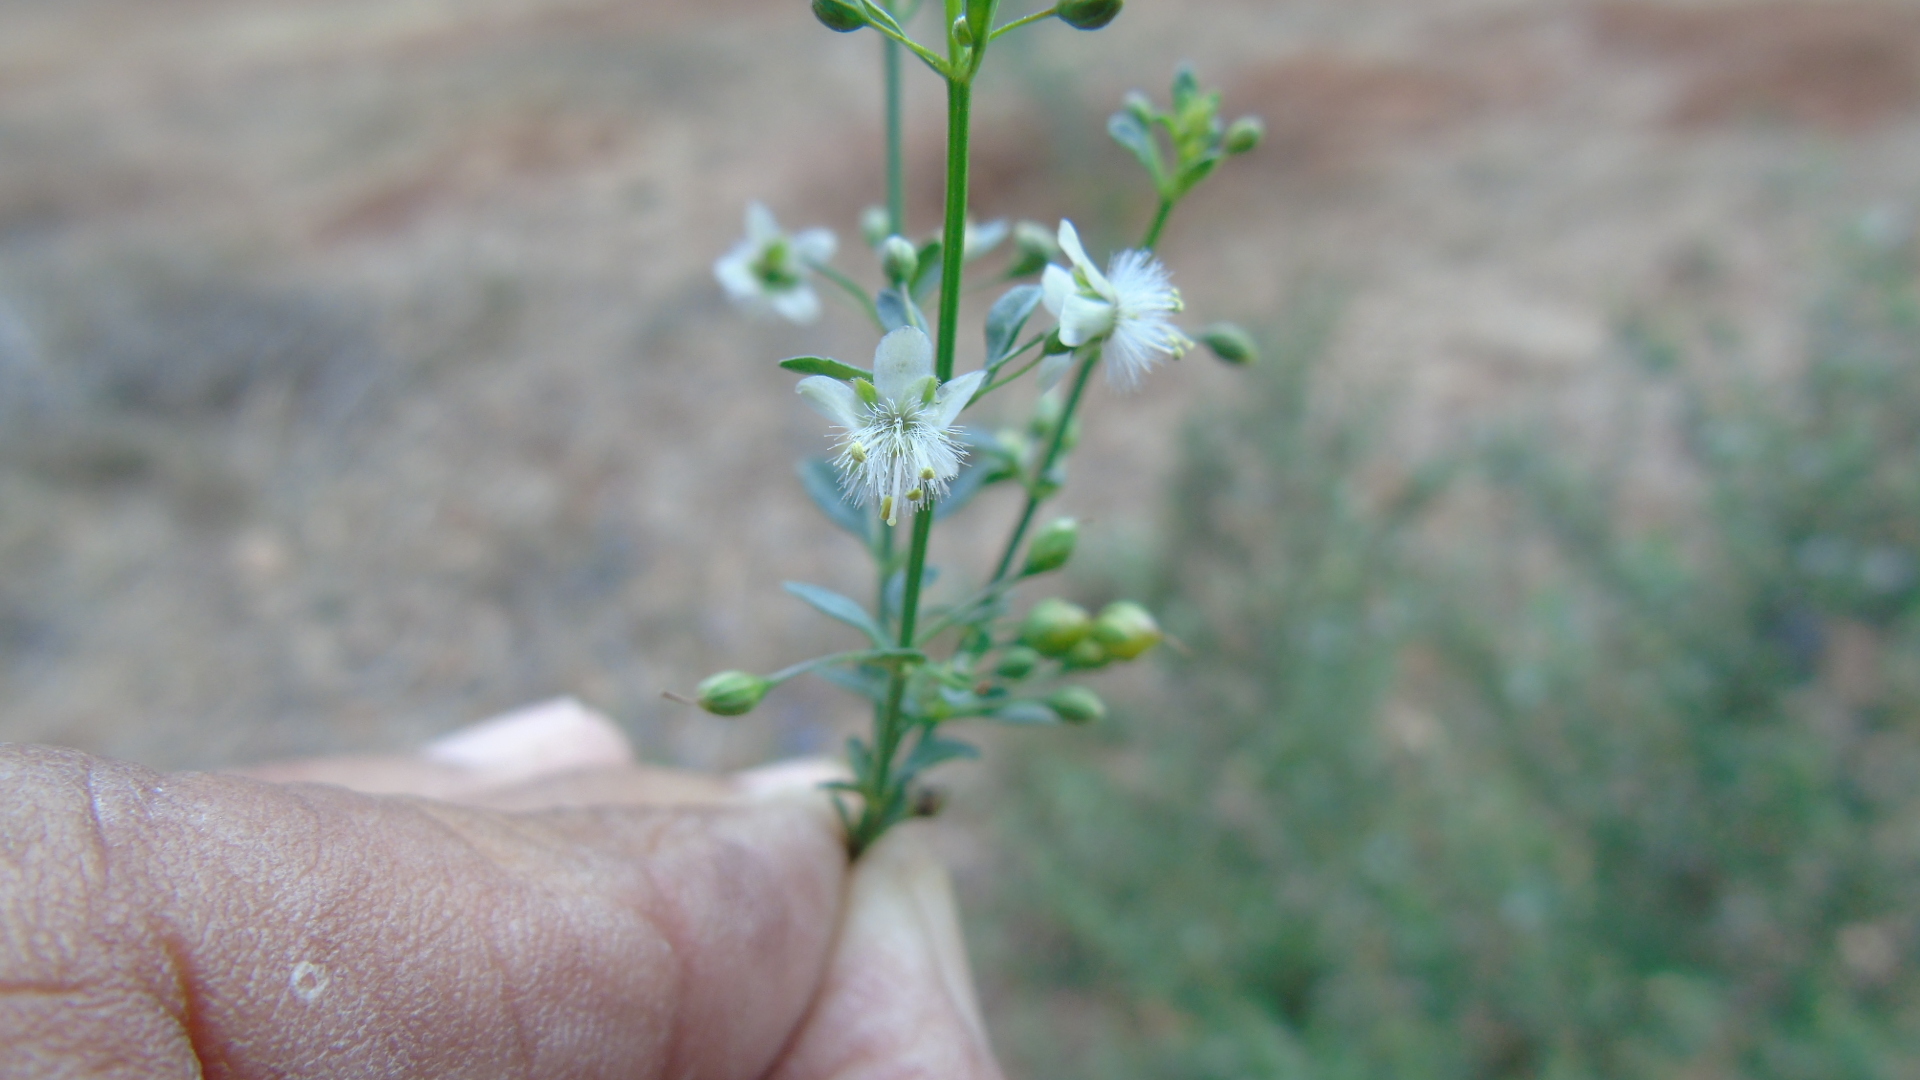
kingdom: Plantae
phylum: Tracheophyta
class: Magnoliopsida
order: Lamiales
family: Plantaginaceae
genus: Scoparia
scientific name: Scoparia dulcis
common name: Scoparia-weed
